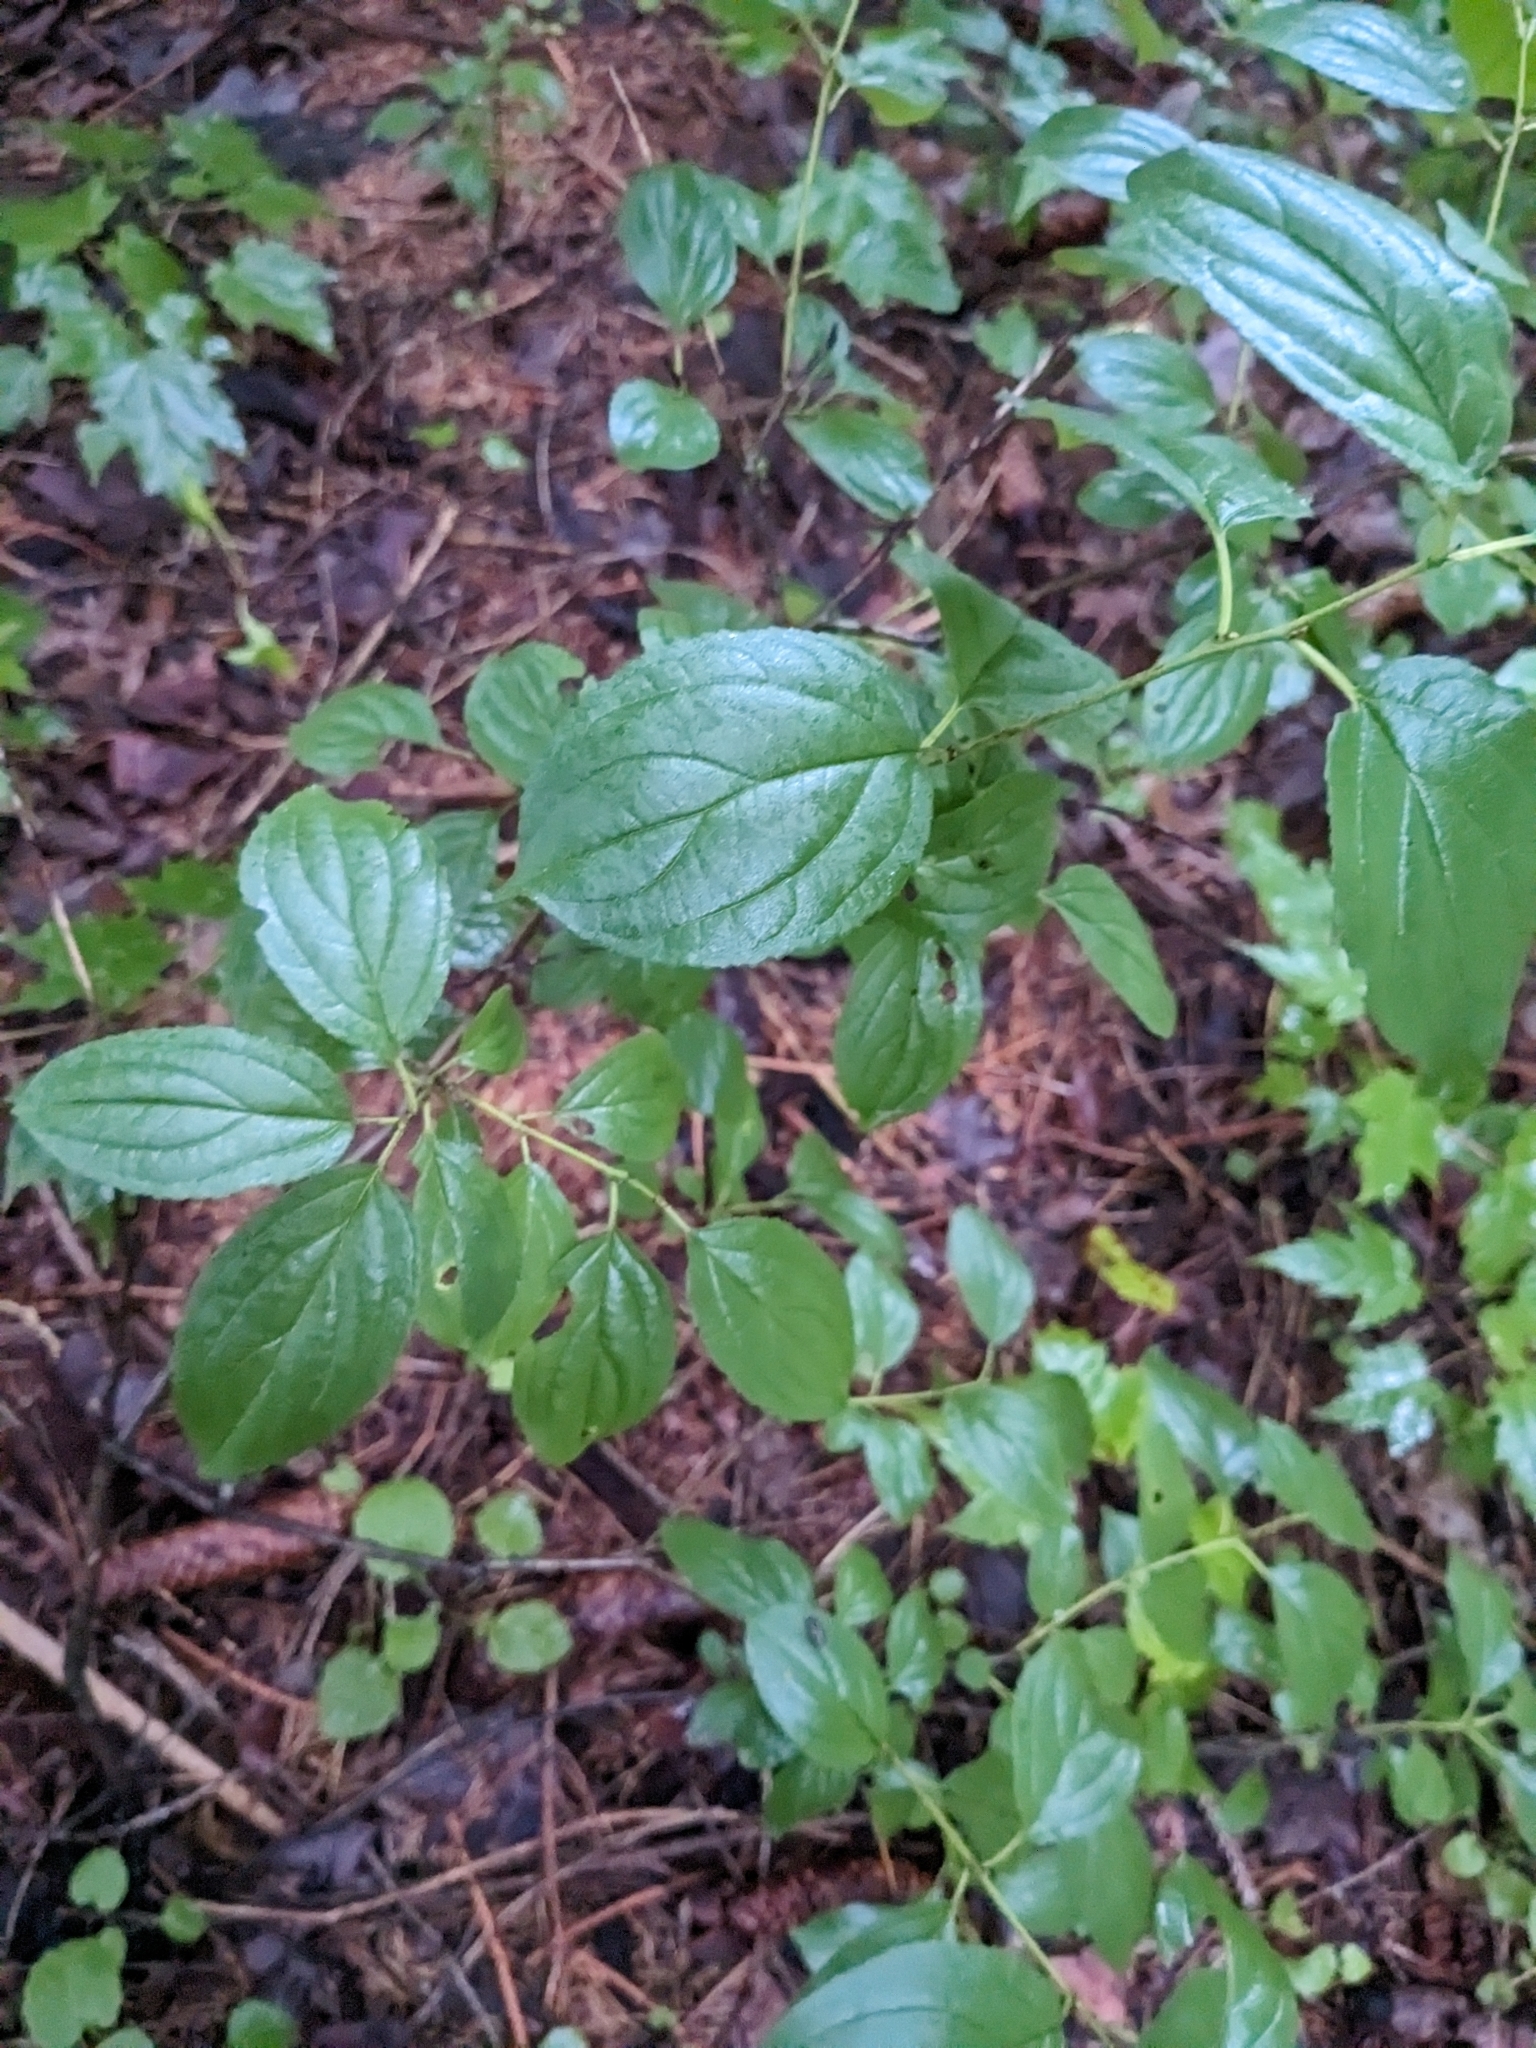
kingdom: Plantae
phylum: Tracheophyta
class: Magnoliopsida
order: Rosales
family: Rhamnaceae
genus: Rhamnus
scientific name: Rhamnus cathartica
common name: Common buckthorn
